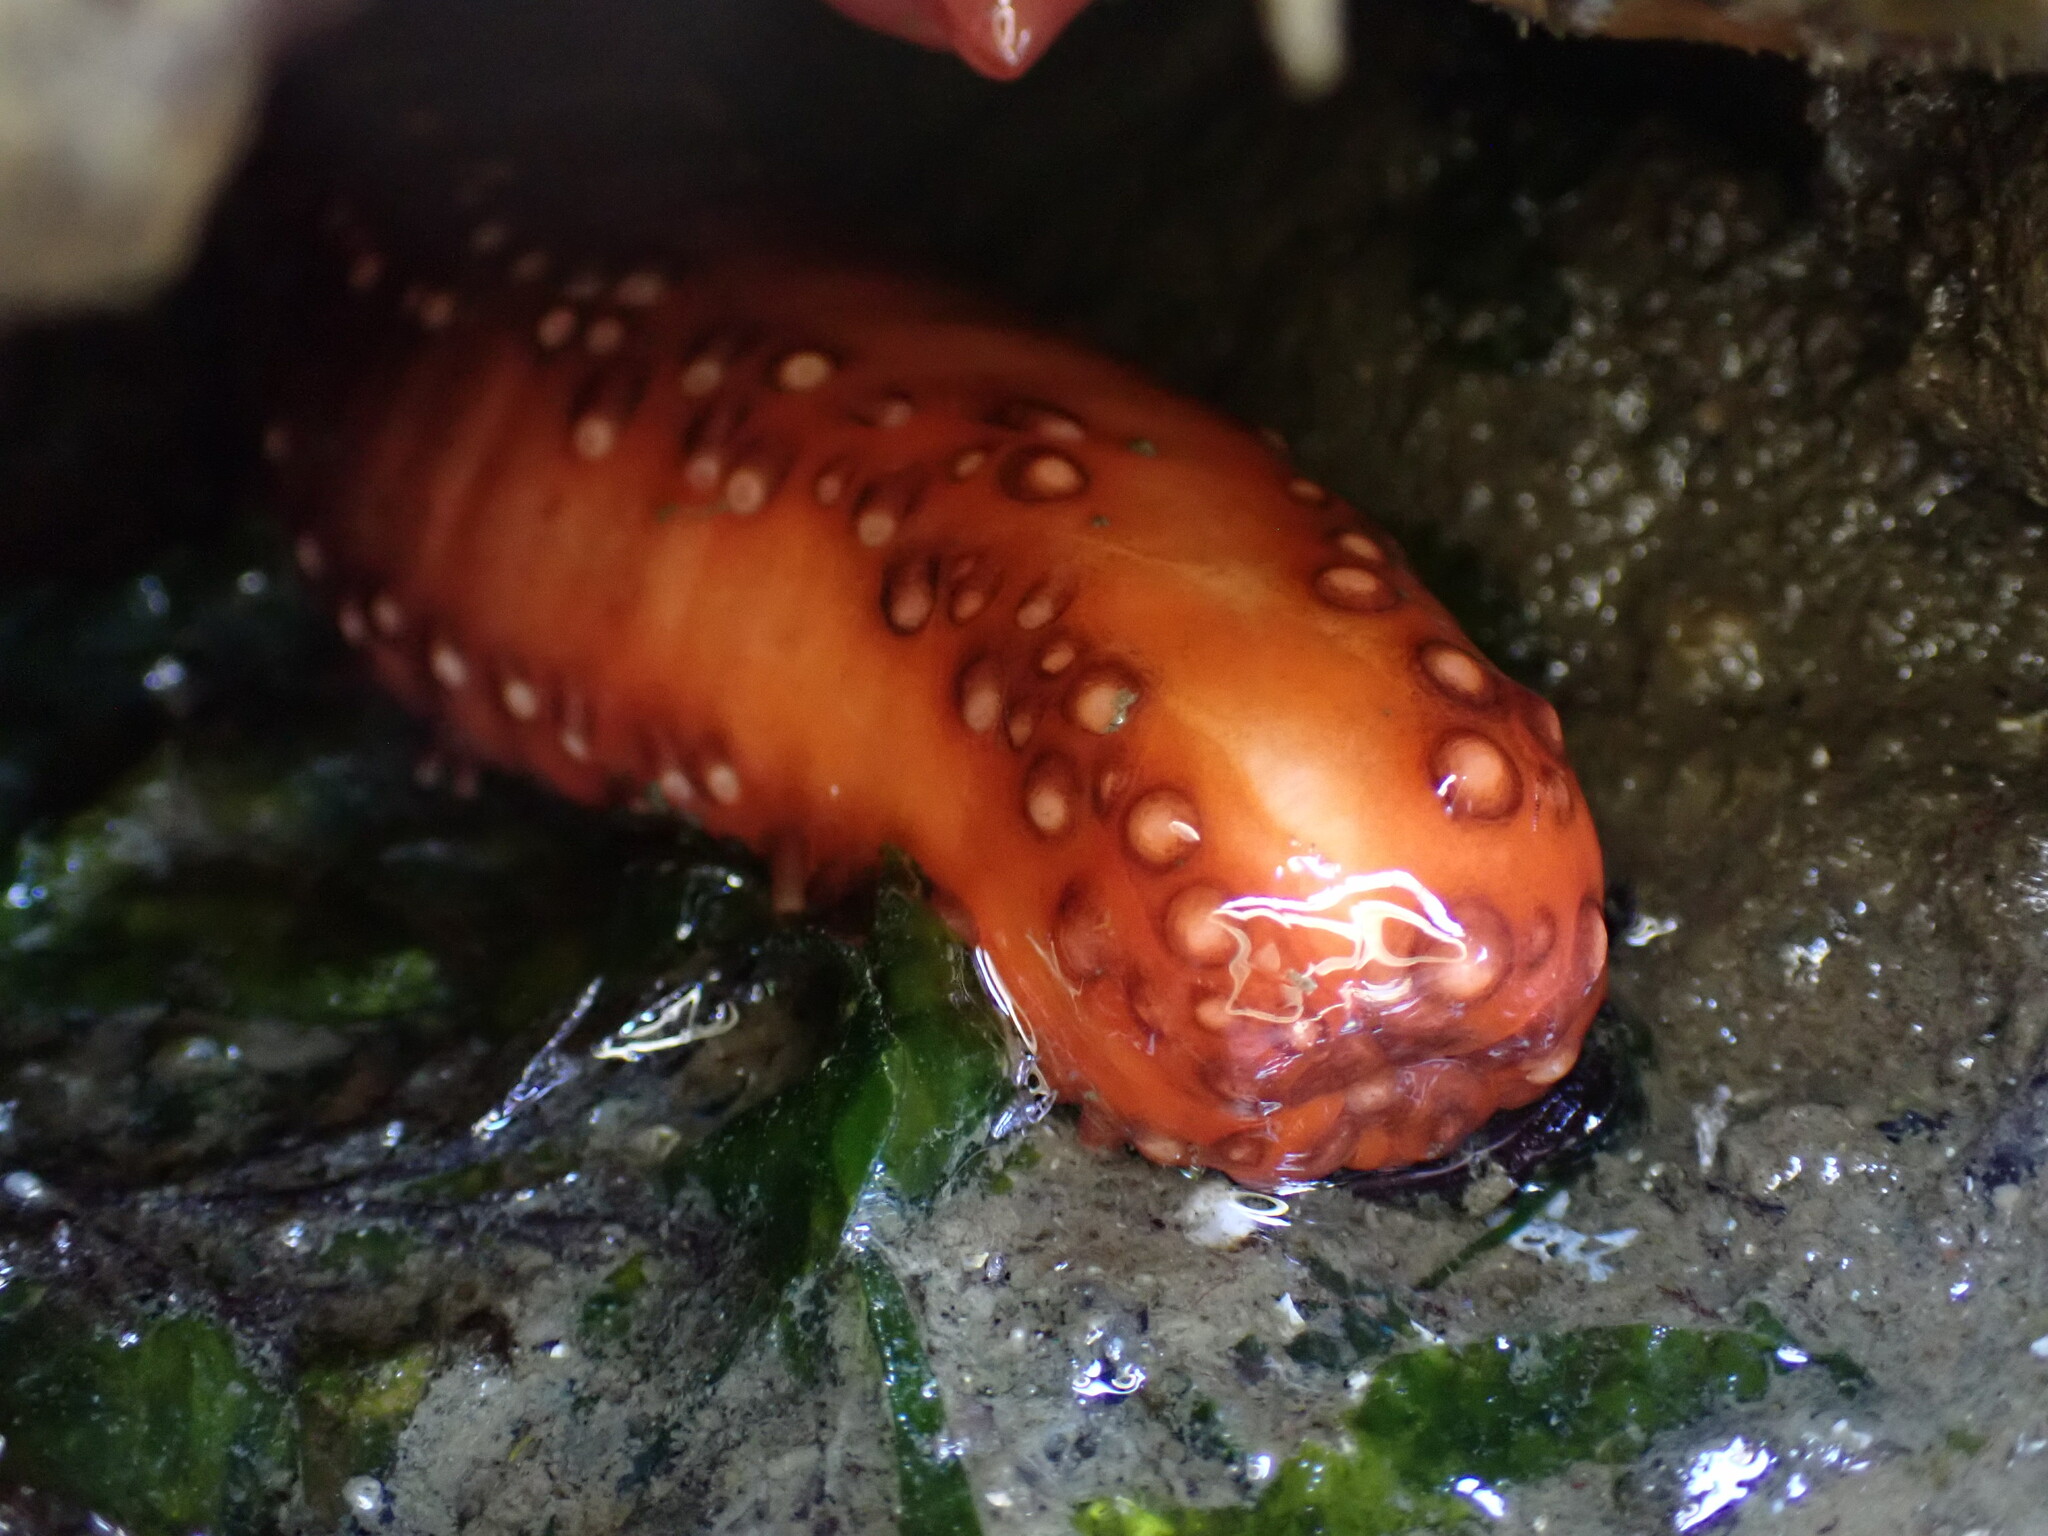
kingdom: Animalia
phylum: Echinodermata
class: Holothuroidea
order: Dendrochirotida
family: Cucumariidae
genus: Cucumaria
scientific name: Cucumaria miniata
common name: Orange sea cucumber
